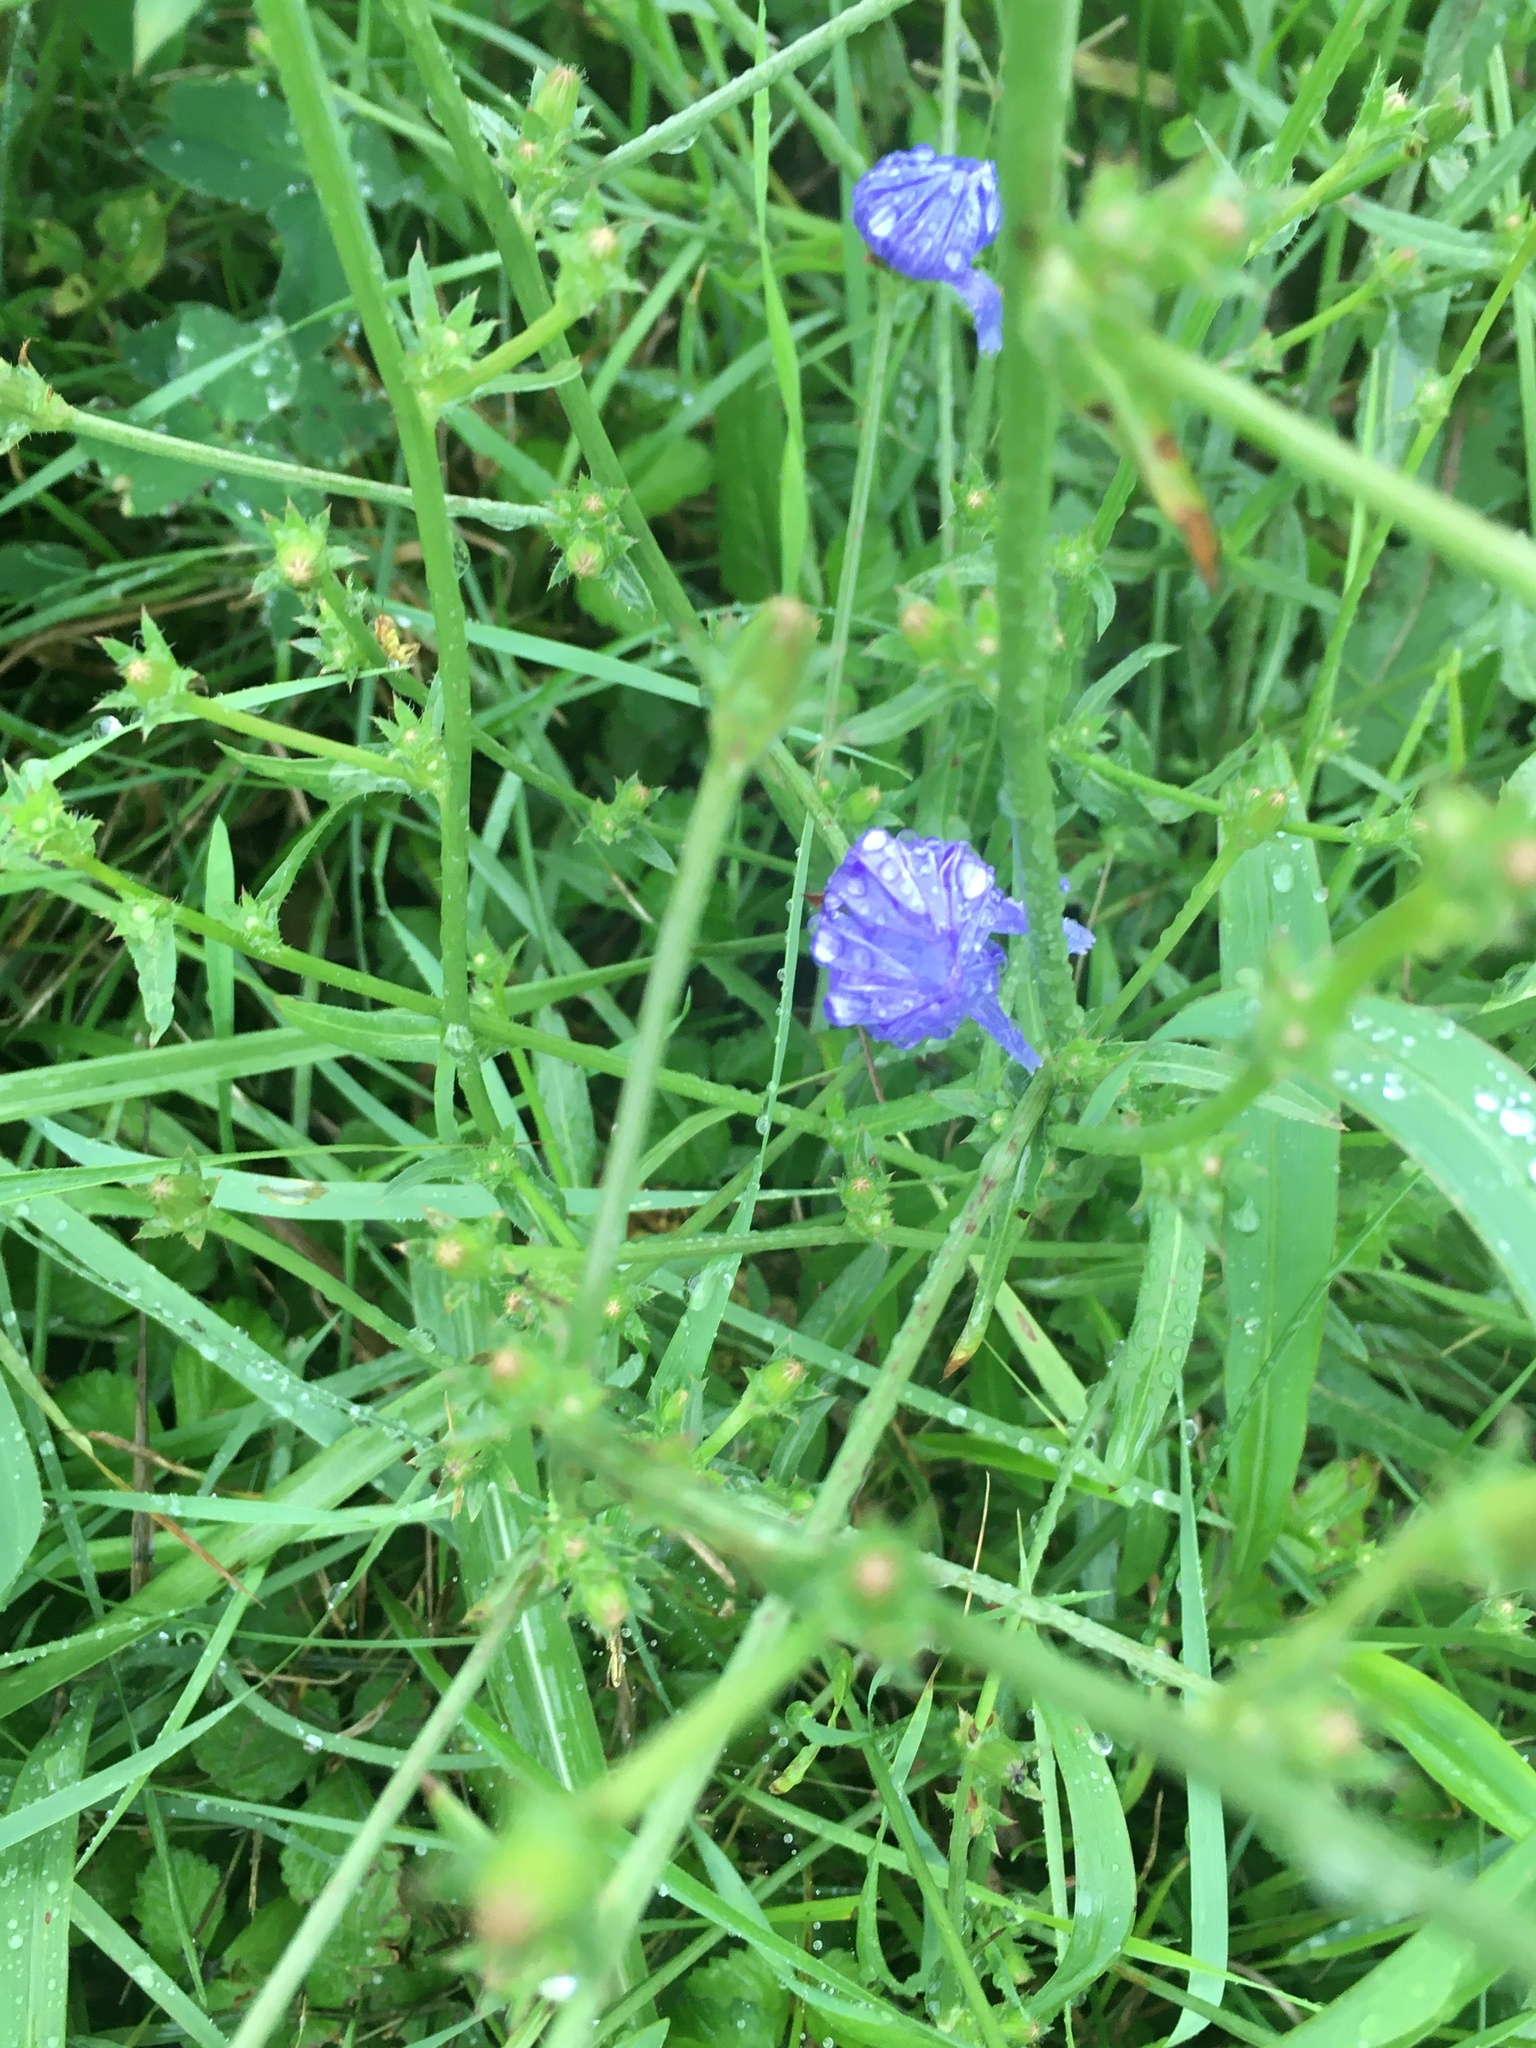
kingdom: Plantae
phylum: Tracheophyta
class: Magnoliopsida
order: Asterales
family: Asteraceae
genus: Cichorium
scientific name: Cichorium intybus
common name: Chicory
